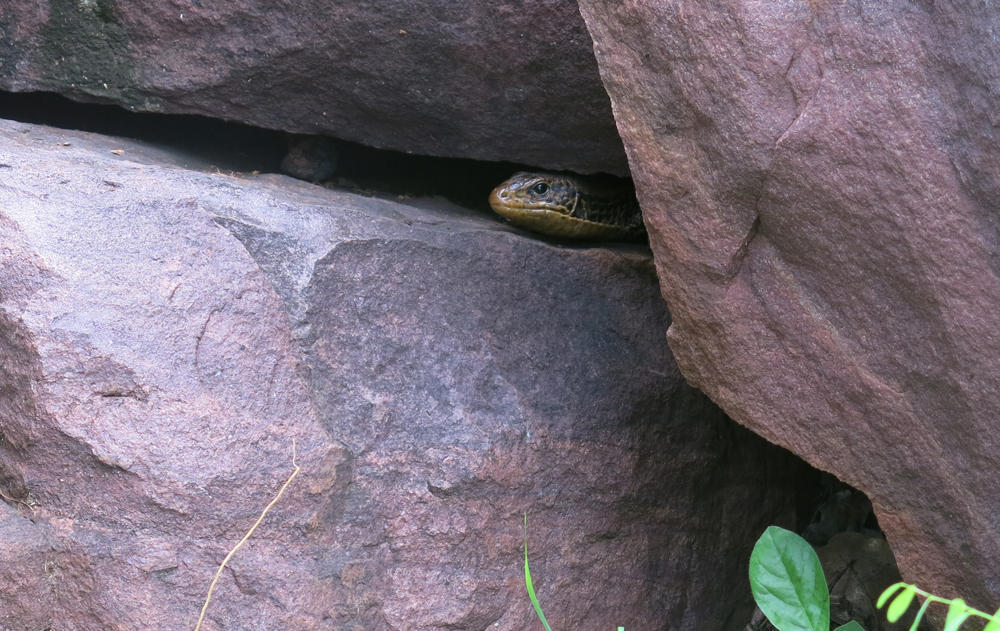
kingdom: Animalia
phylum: Chordata
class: Squamata
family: Gerrhosauridae
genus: Broadleysaurus
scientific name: Broadleysaurus major
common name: Rough-scaled plated lizard
